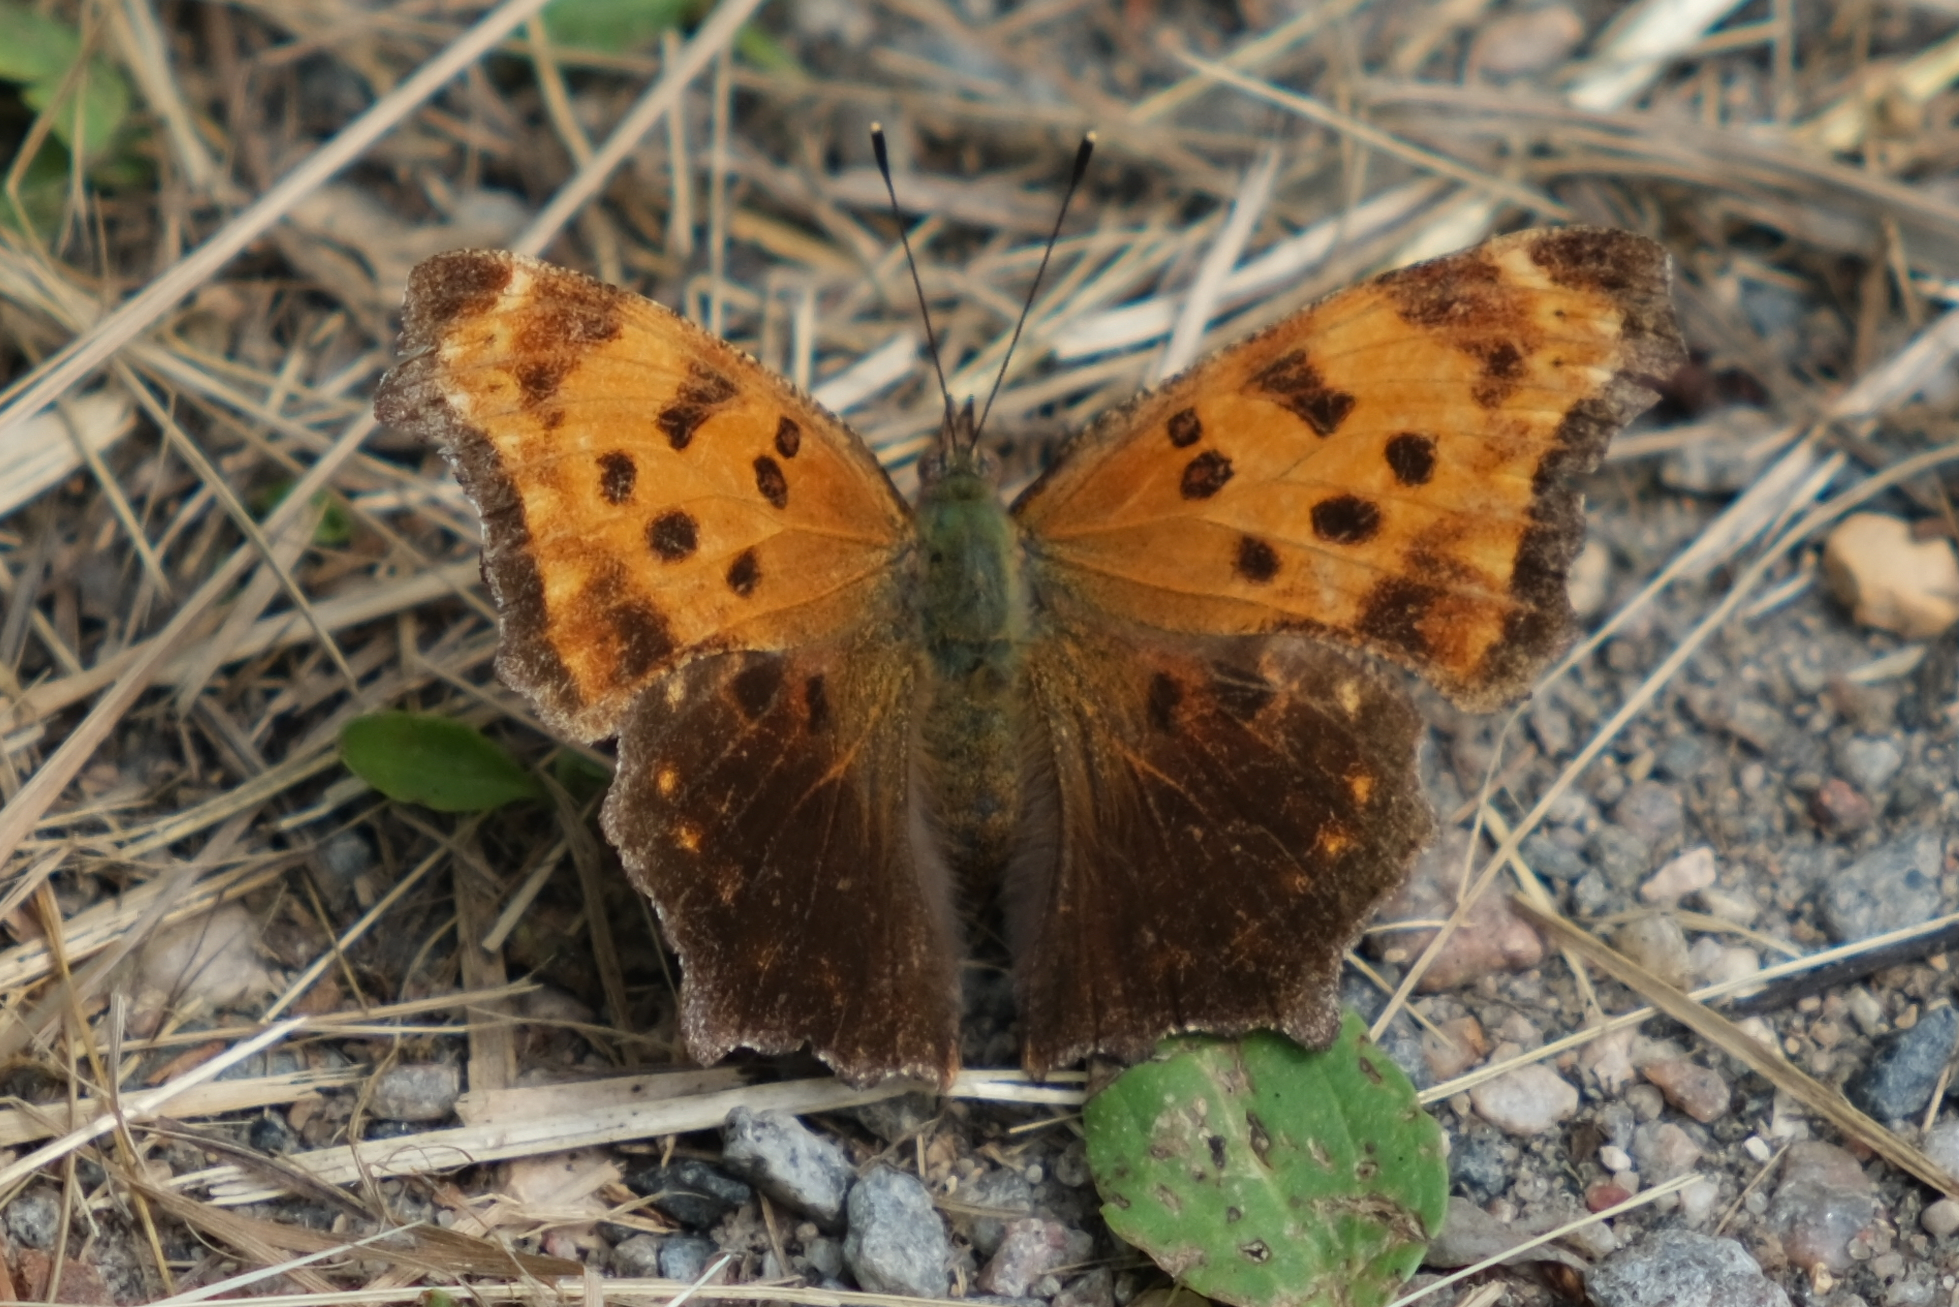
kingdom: Animalia
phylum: Arthropoda
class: Insecta
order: Lepidoptera
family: Nymphalidae
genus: Polygonia
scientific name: Polygonia comma
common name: Eastern comma
